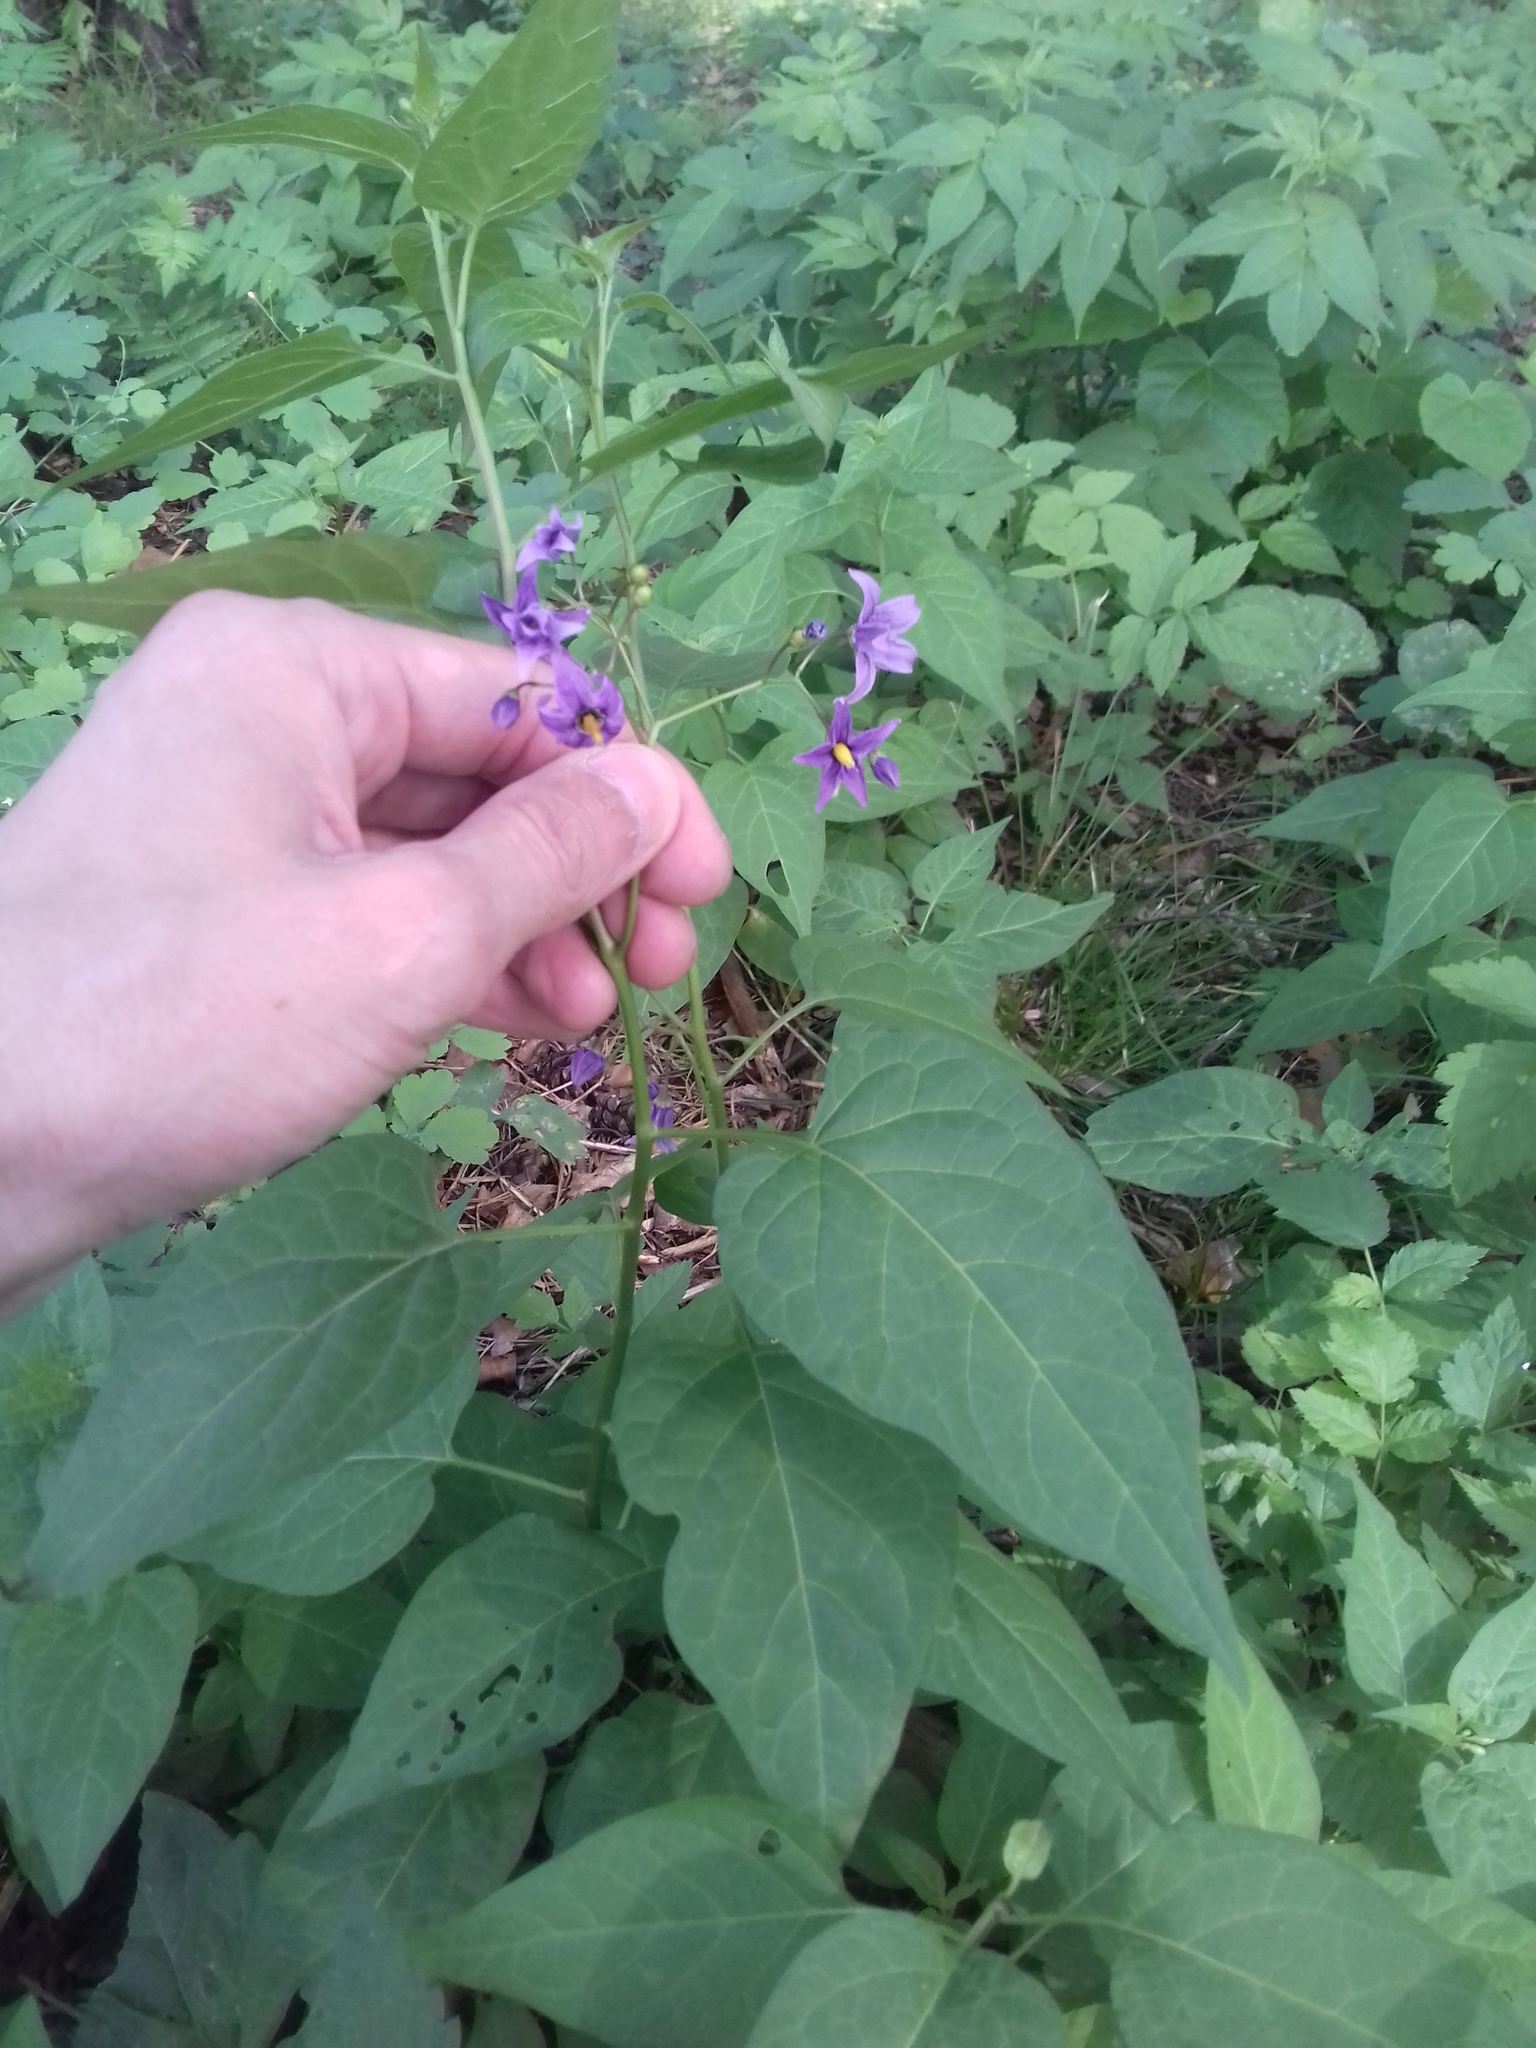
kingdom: Plantae
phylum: Tracheophyta
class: Magnoliopsida
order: Solanales
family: Solanaceae
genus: Solanum
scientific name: Solanum dulcamara
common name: Climbing nightshade
